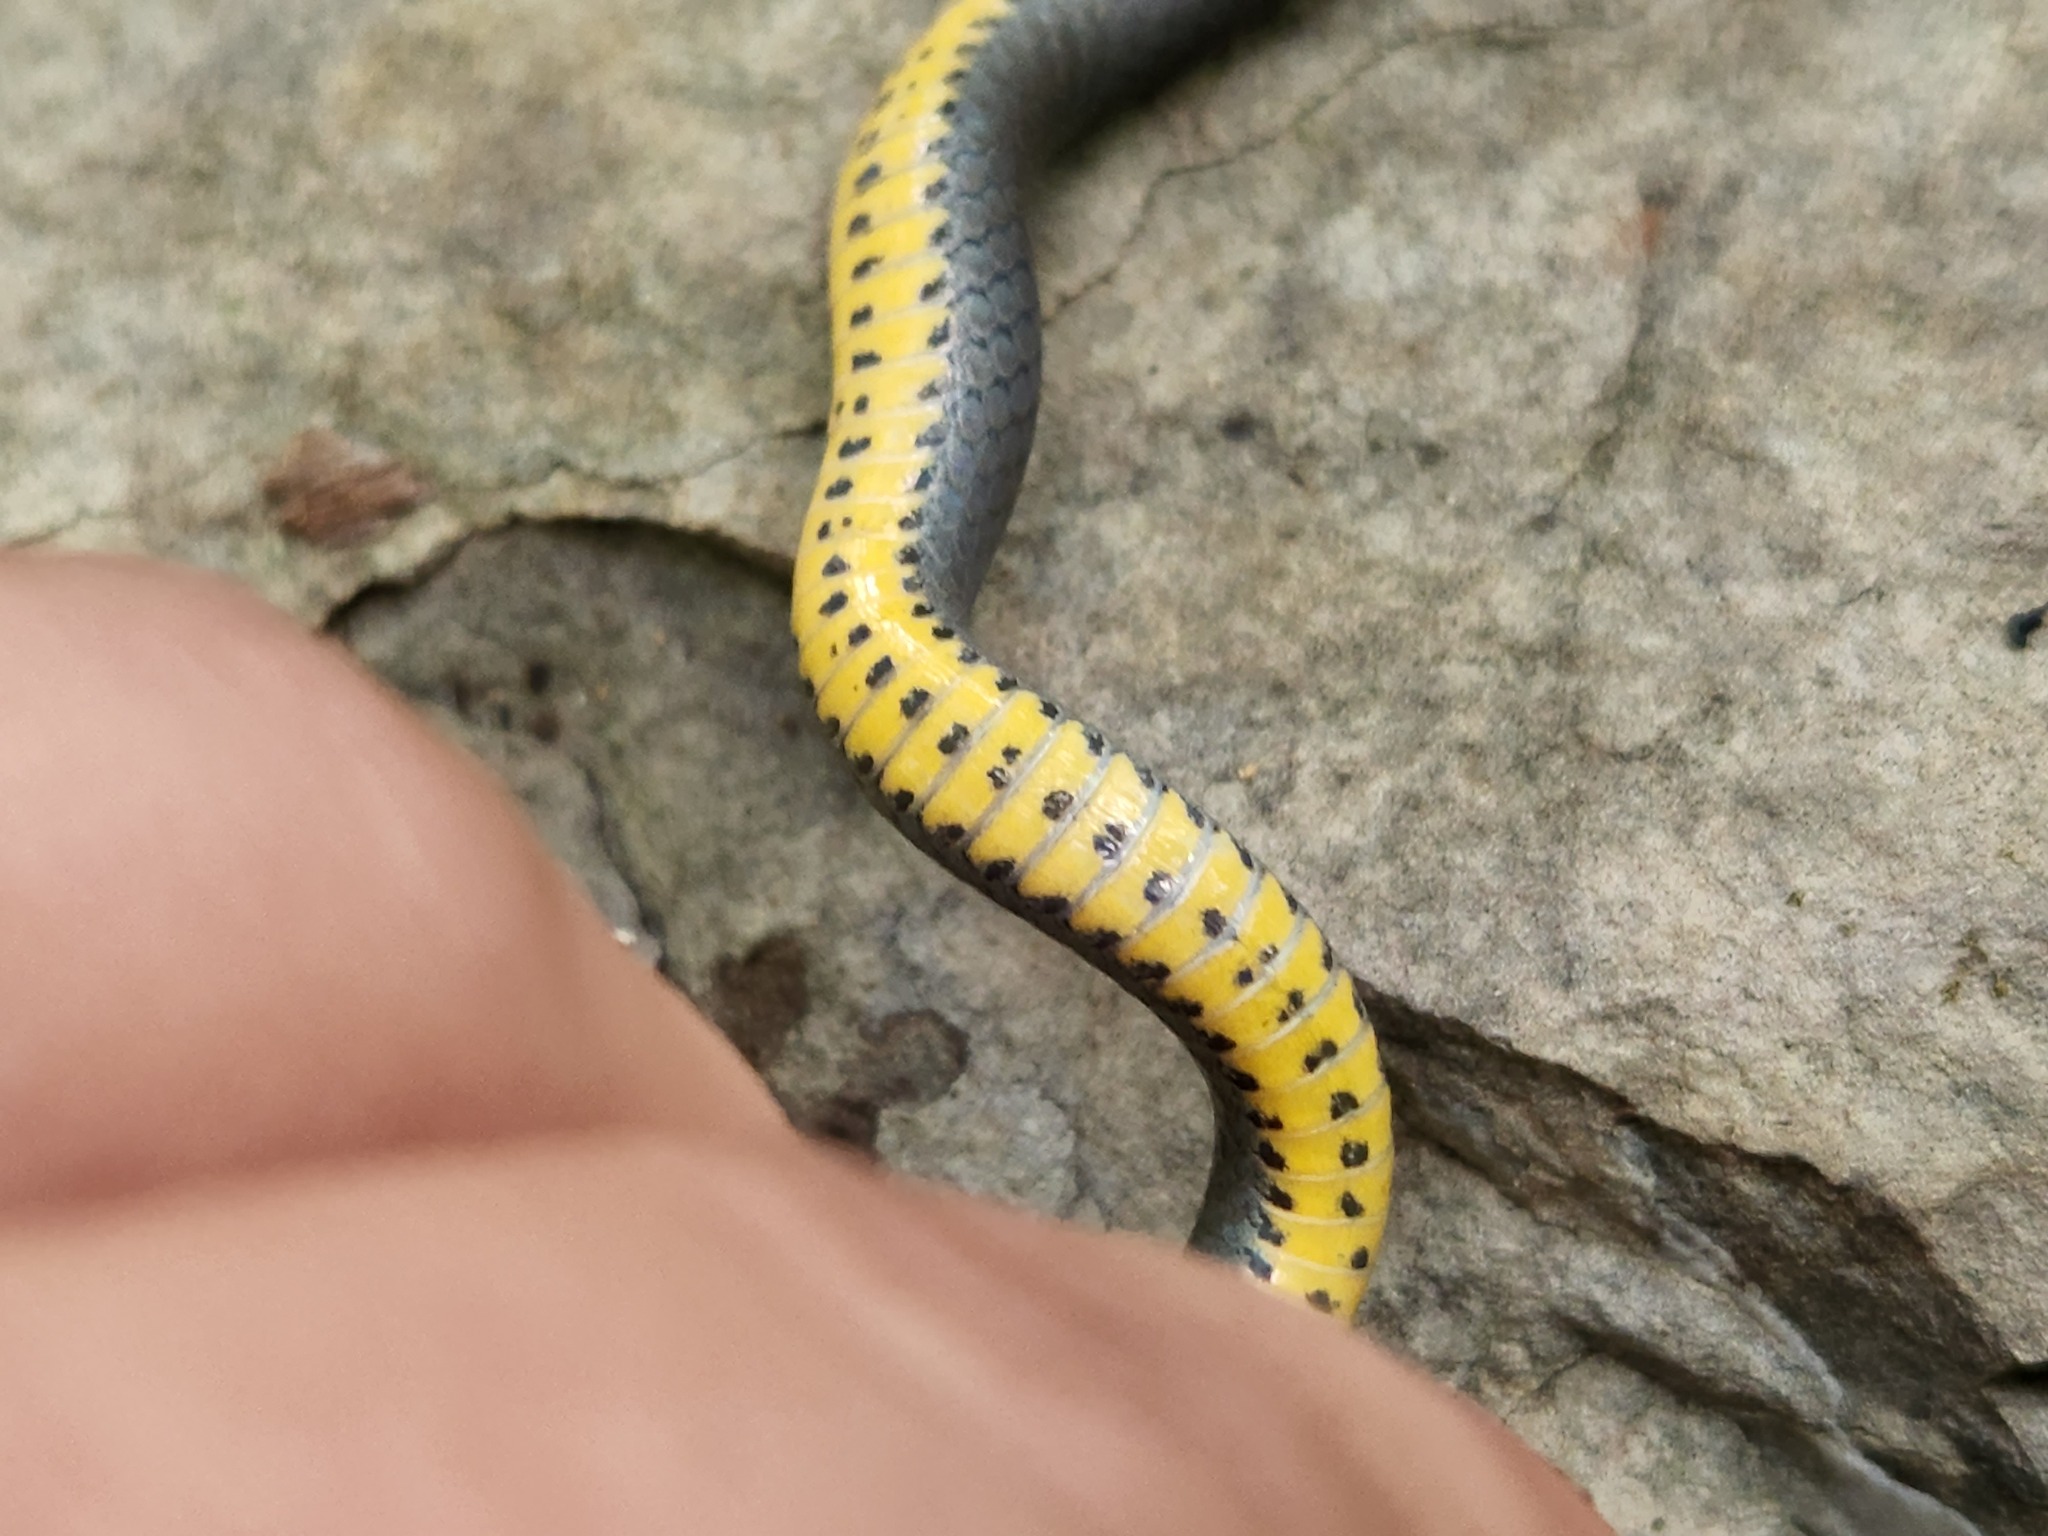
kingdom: Animalia
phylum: Chordata
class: Squamata
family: Colubridae
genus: Diadophis
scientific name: Diadophis punctatus
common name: Ringneck snake
